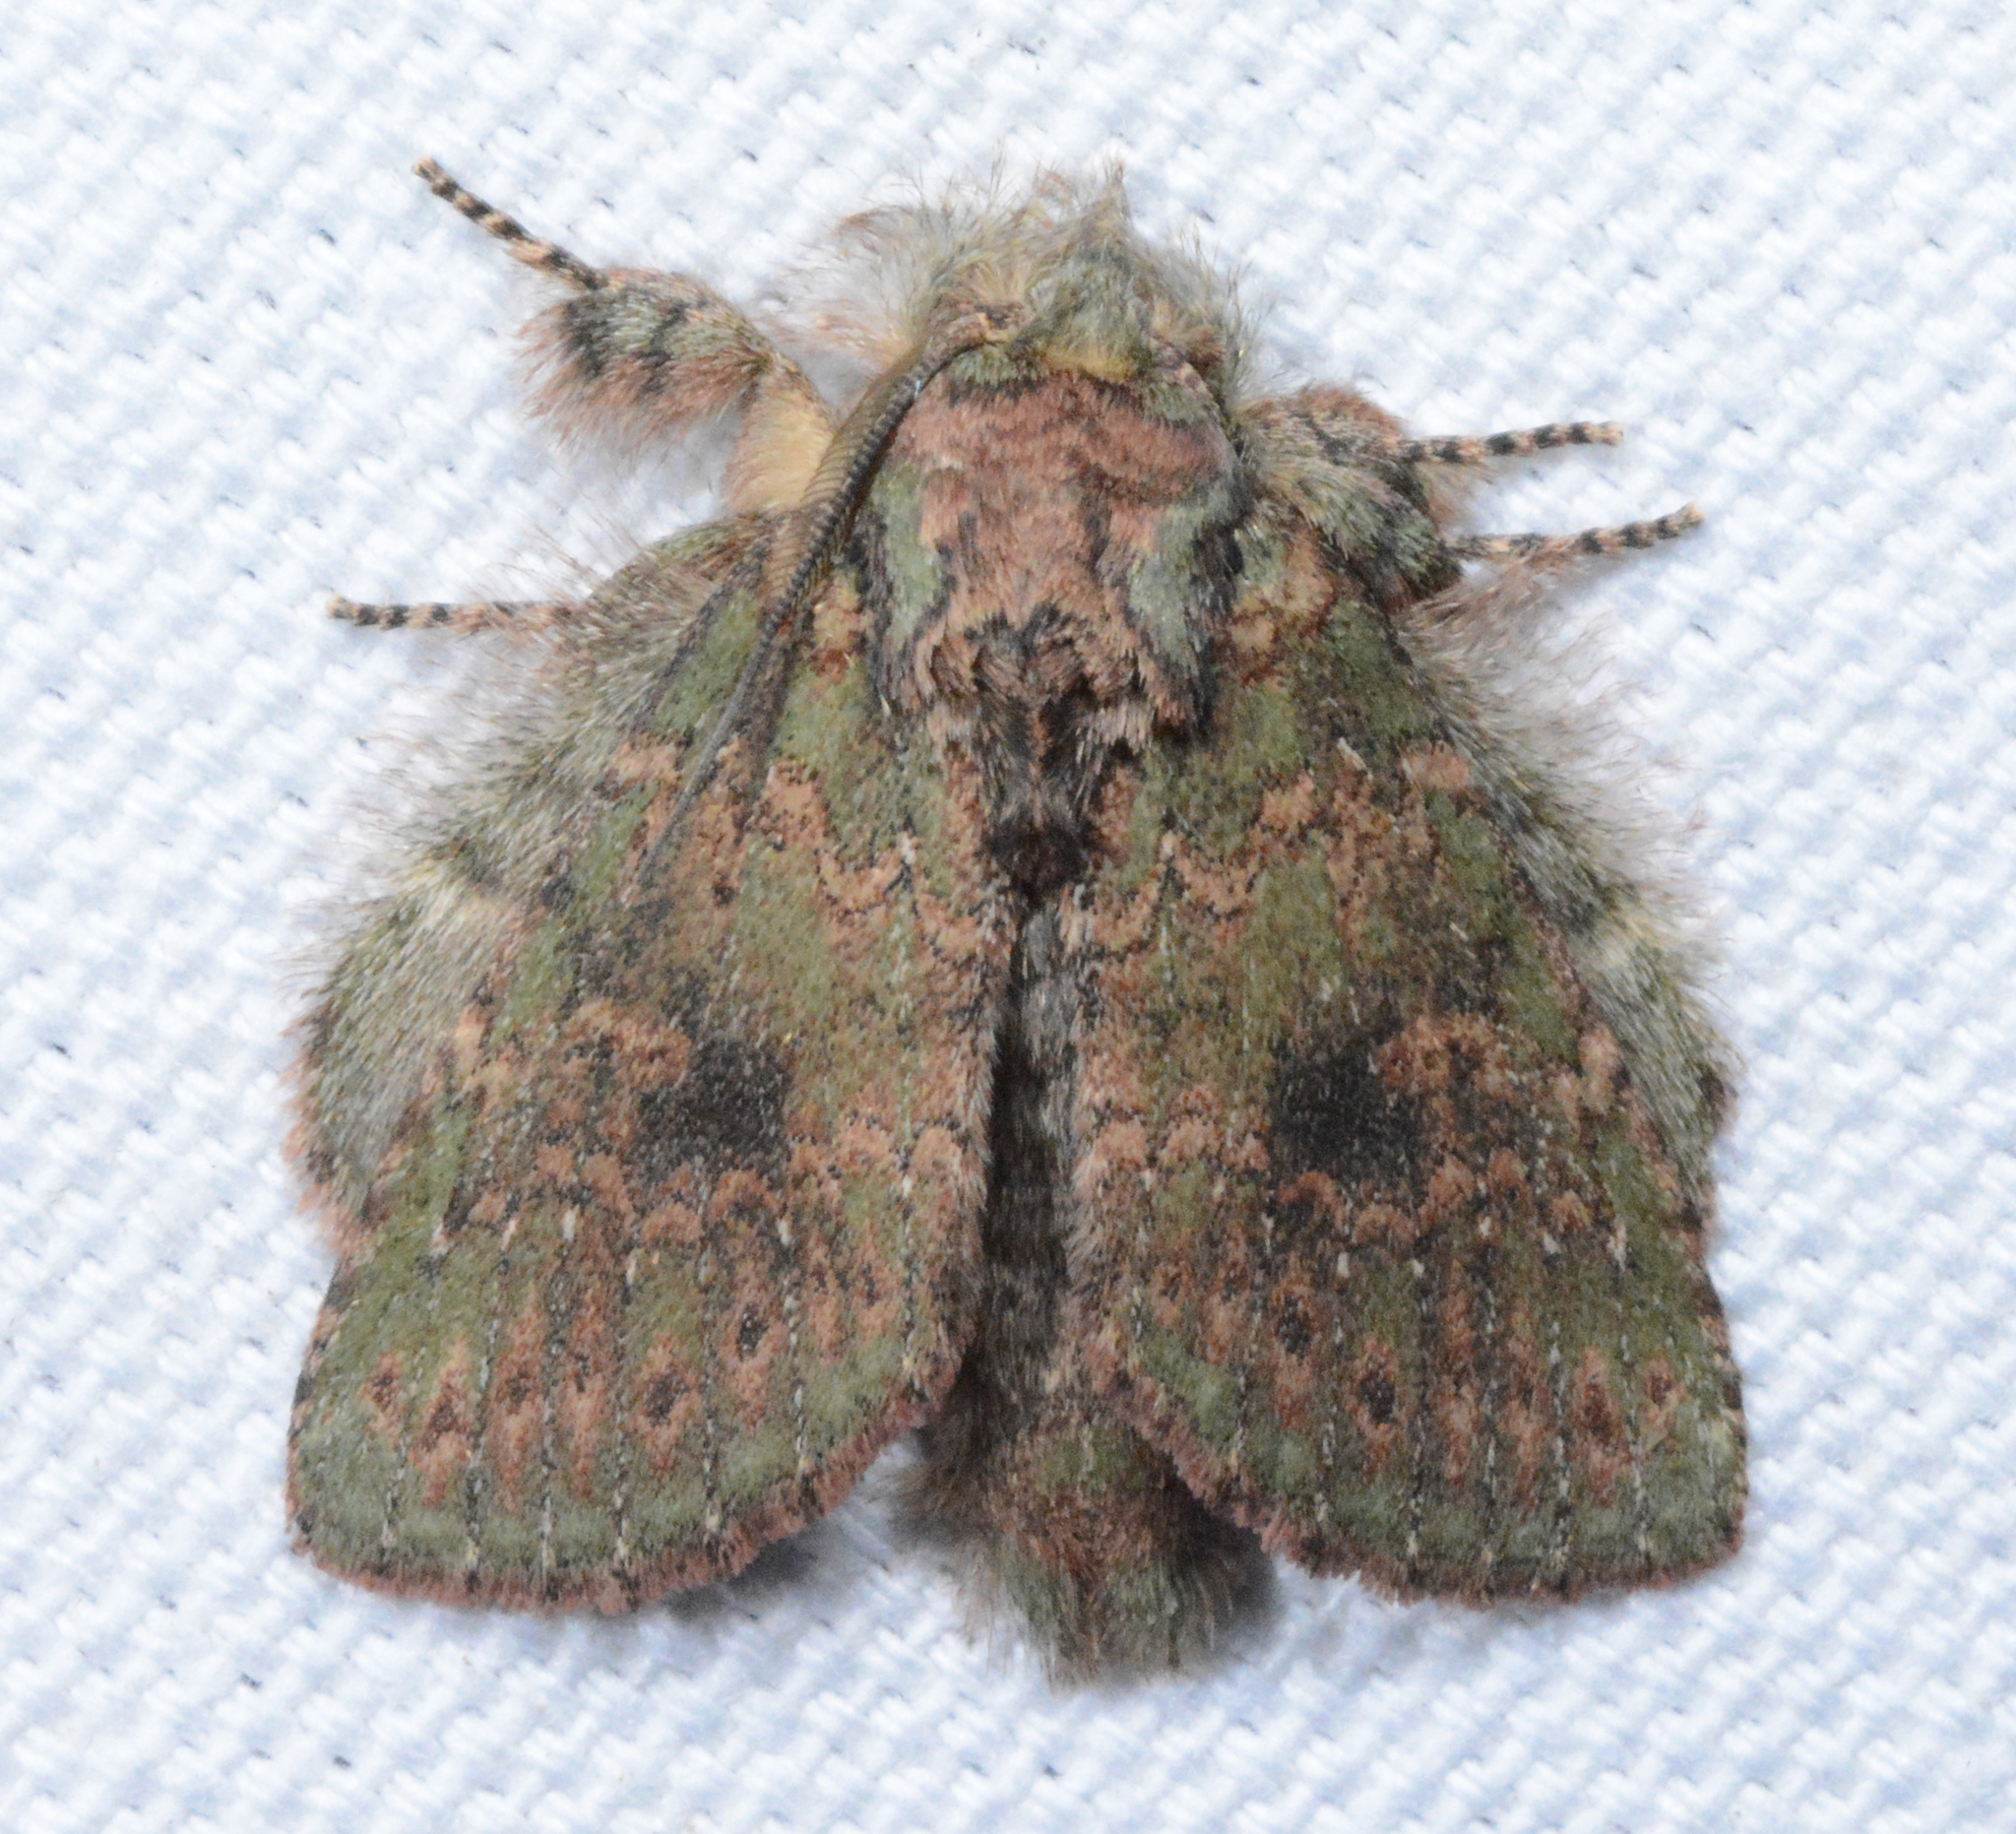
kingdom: Animalia
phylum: Arthropoda
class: Insecta
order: Lepidoptera
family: Notodontidae
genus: Disphragis
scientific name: Disphragis Cecrita biundata
